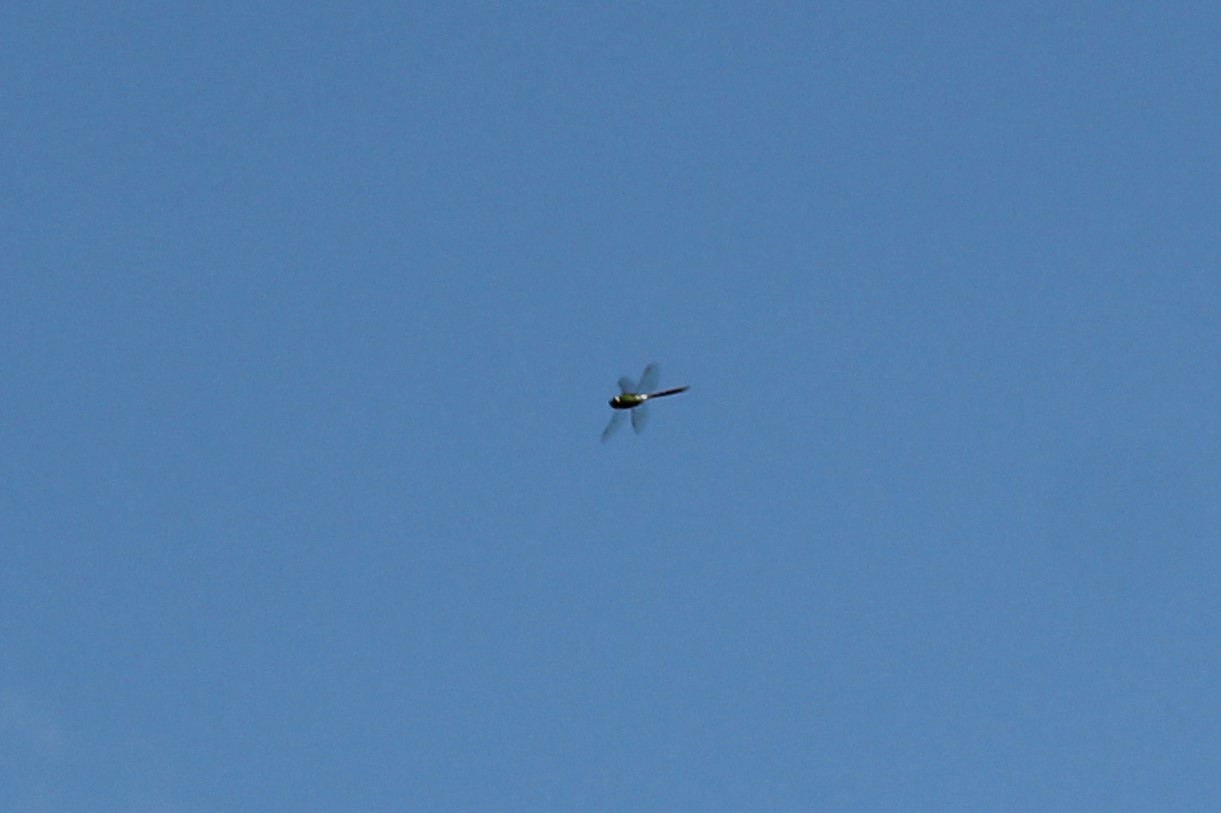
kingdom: Animalia
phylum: Arthropoda
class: Insecta
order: Odonata
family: Aeshnidae
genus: Anax
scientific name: Anax junius
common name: Common green darner
